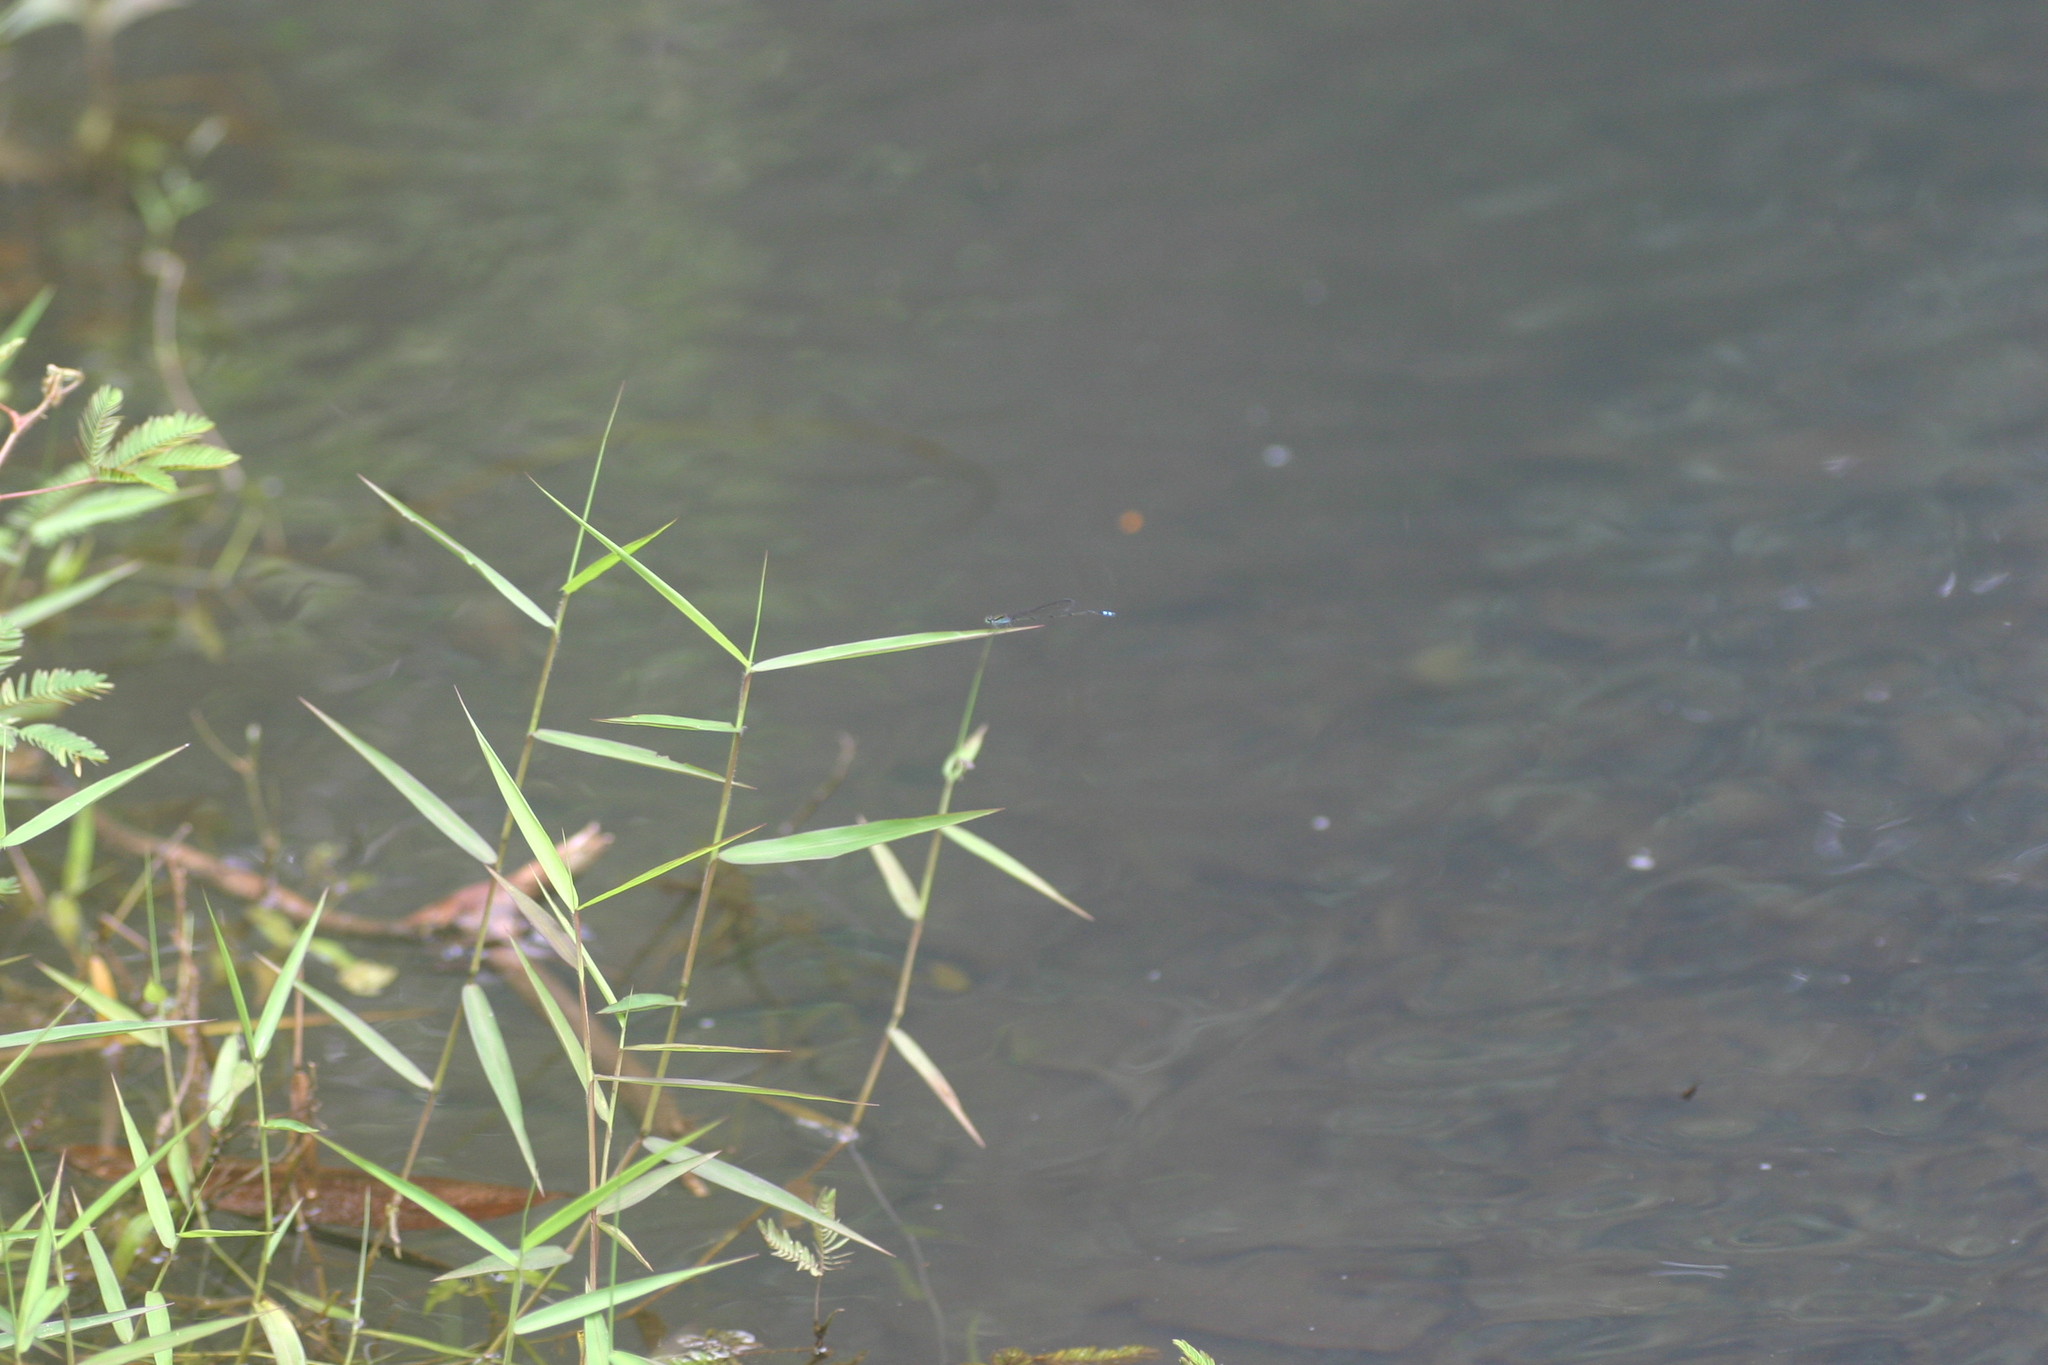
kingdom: Animalia
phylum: Arthropoda
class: Insecta
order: Odonata
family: Coenagrionidae
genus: Pseudagrion
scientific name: Pseudagrion indicum
